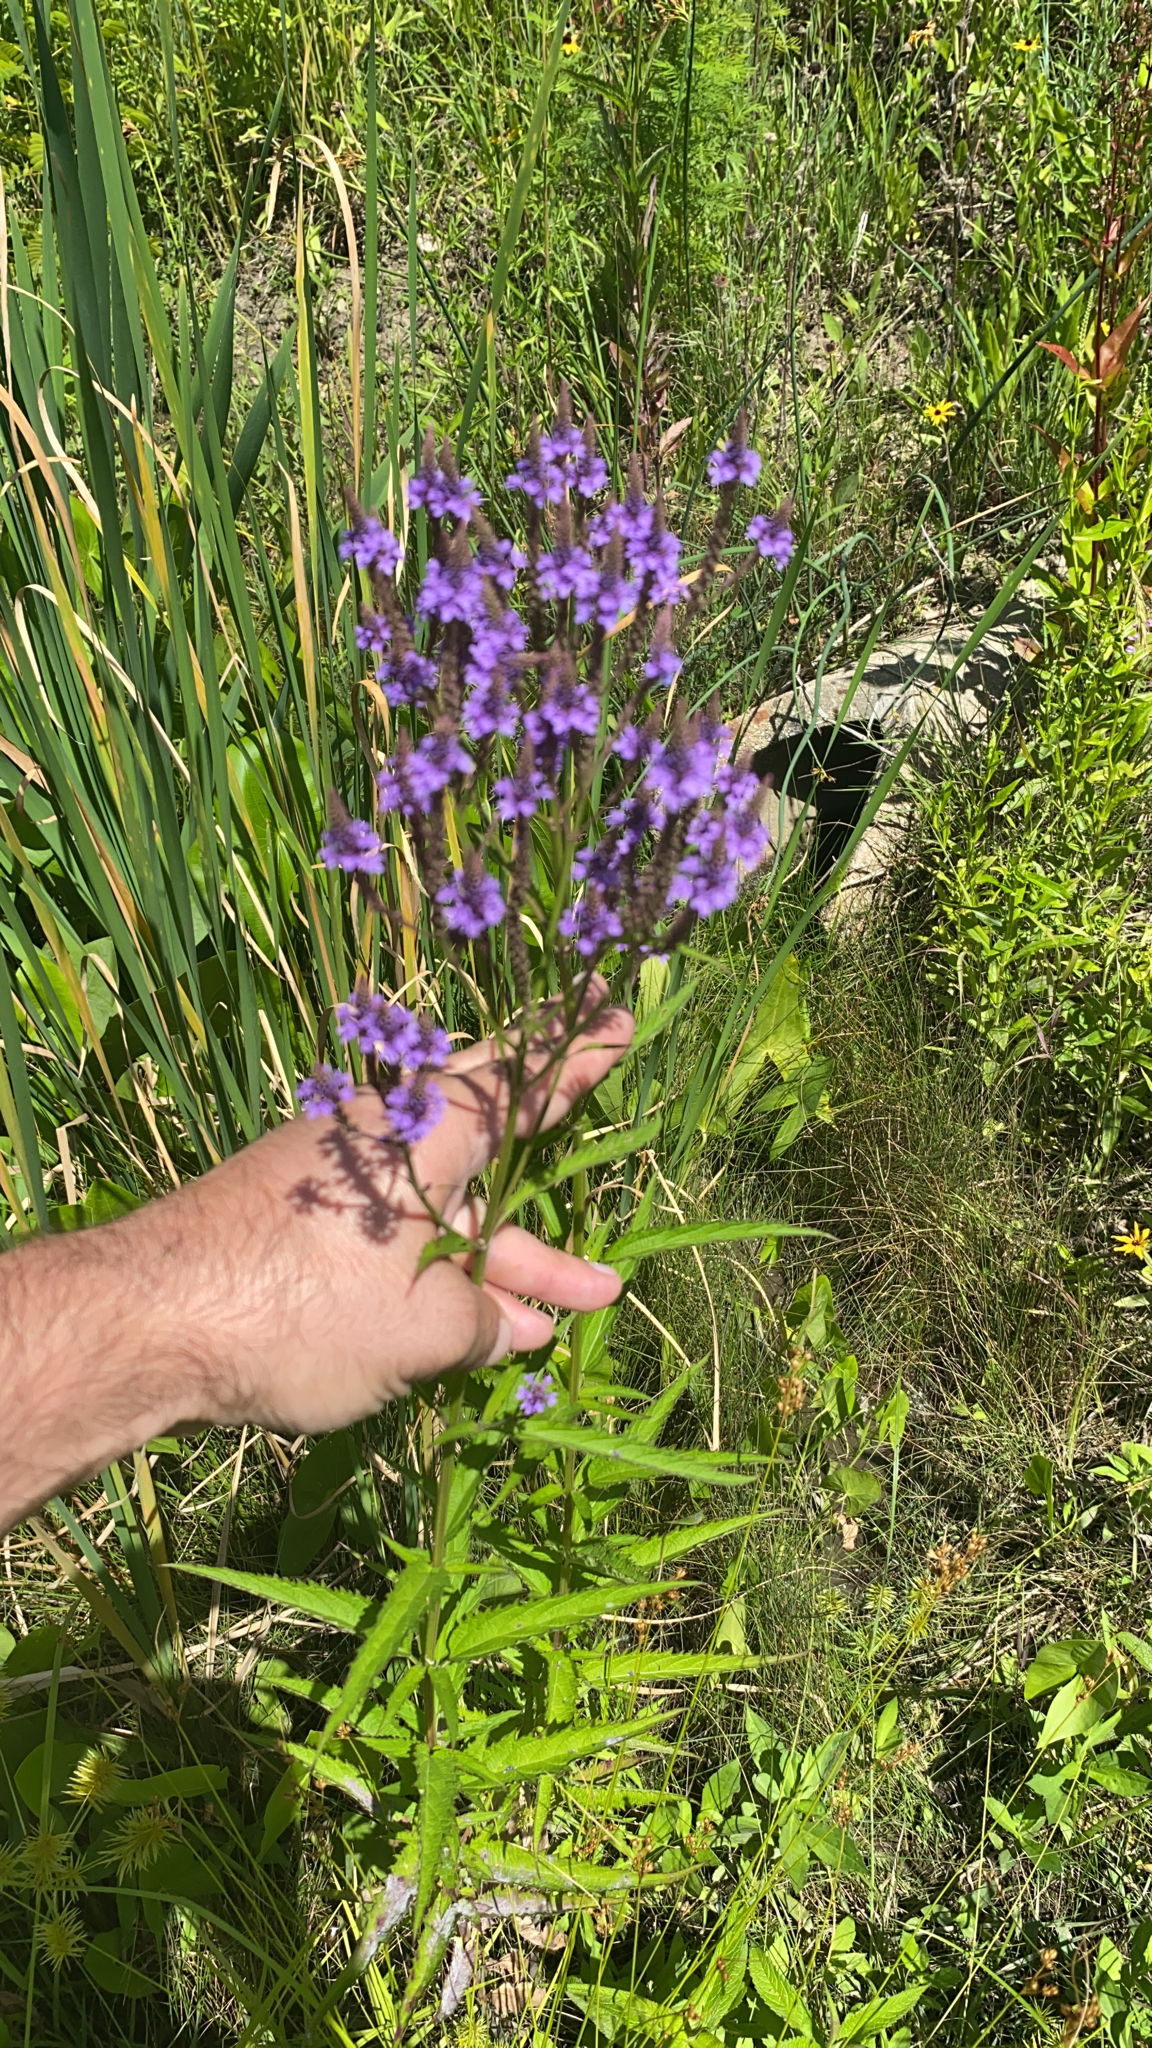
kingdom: Plantae
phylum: Tracheophyta
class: Magnoliopsida
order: Lamiales
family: Verbenaceae
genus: Verbena
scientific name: Verbena hastata
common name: American blue vervain
